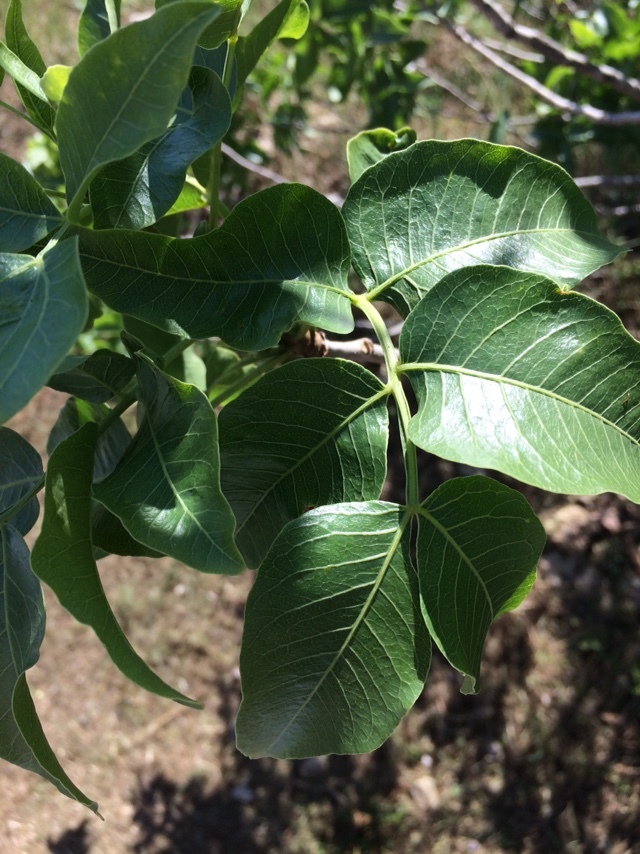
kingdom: Plantae
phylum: Tracheophyta
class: Magnoliopsida
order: Sapindales
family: Anacardiaceae
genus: Pistacia
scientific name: Pistacia atlantica
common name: Mt. atlas mastic tree
